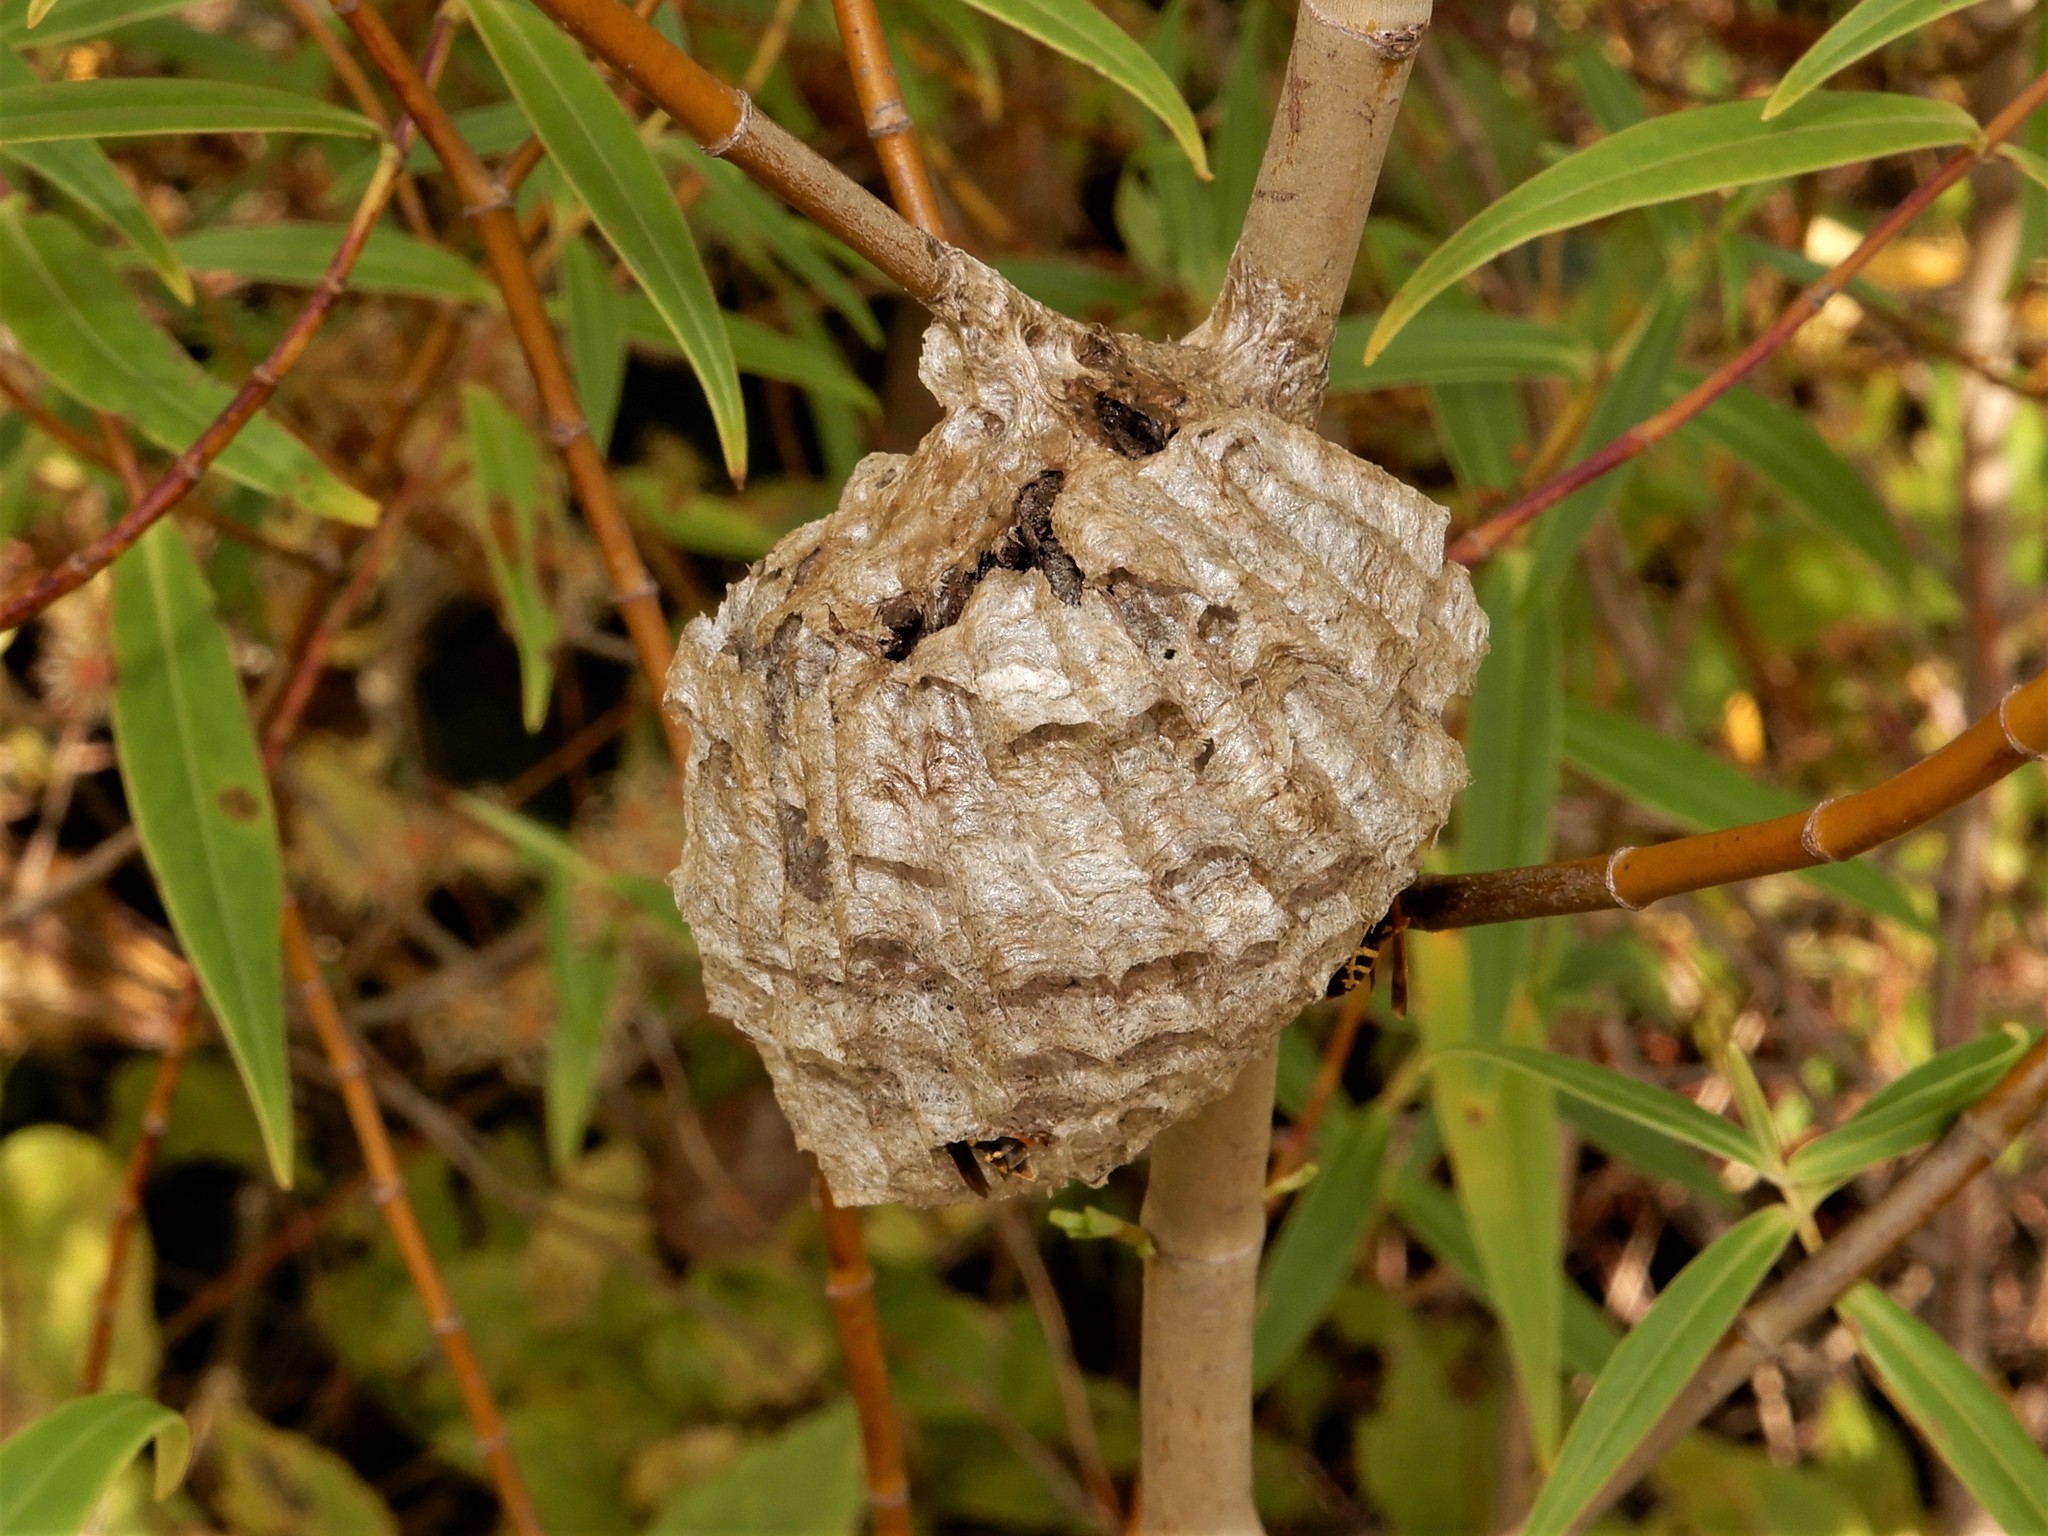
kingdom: Animalia
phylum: Arthropoda
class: Insecta
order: Hymenoptera
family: Eumenidae
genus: Polistes
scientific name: Polistes chinensis
